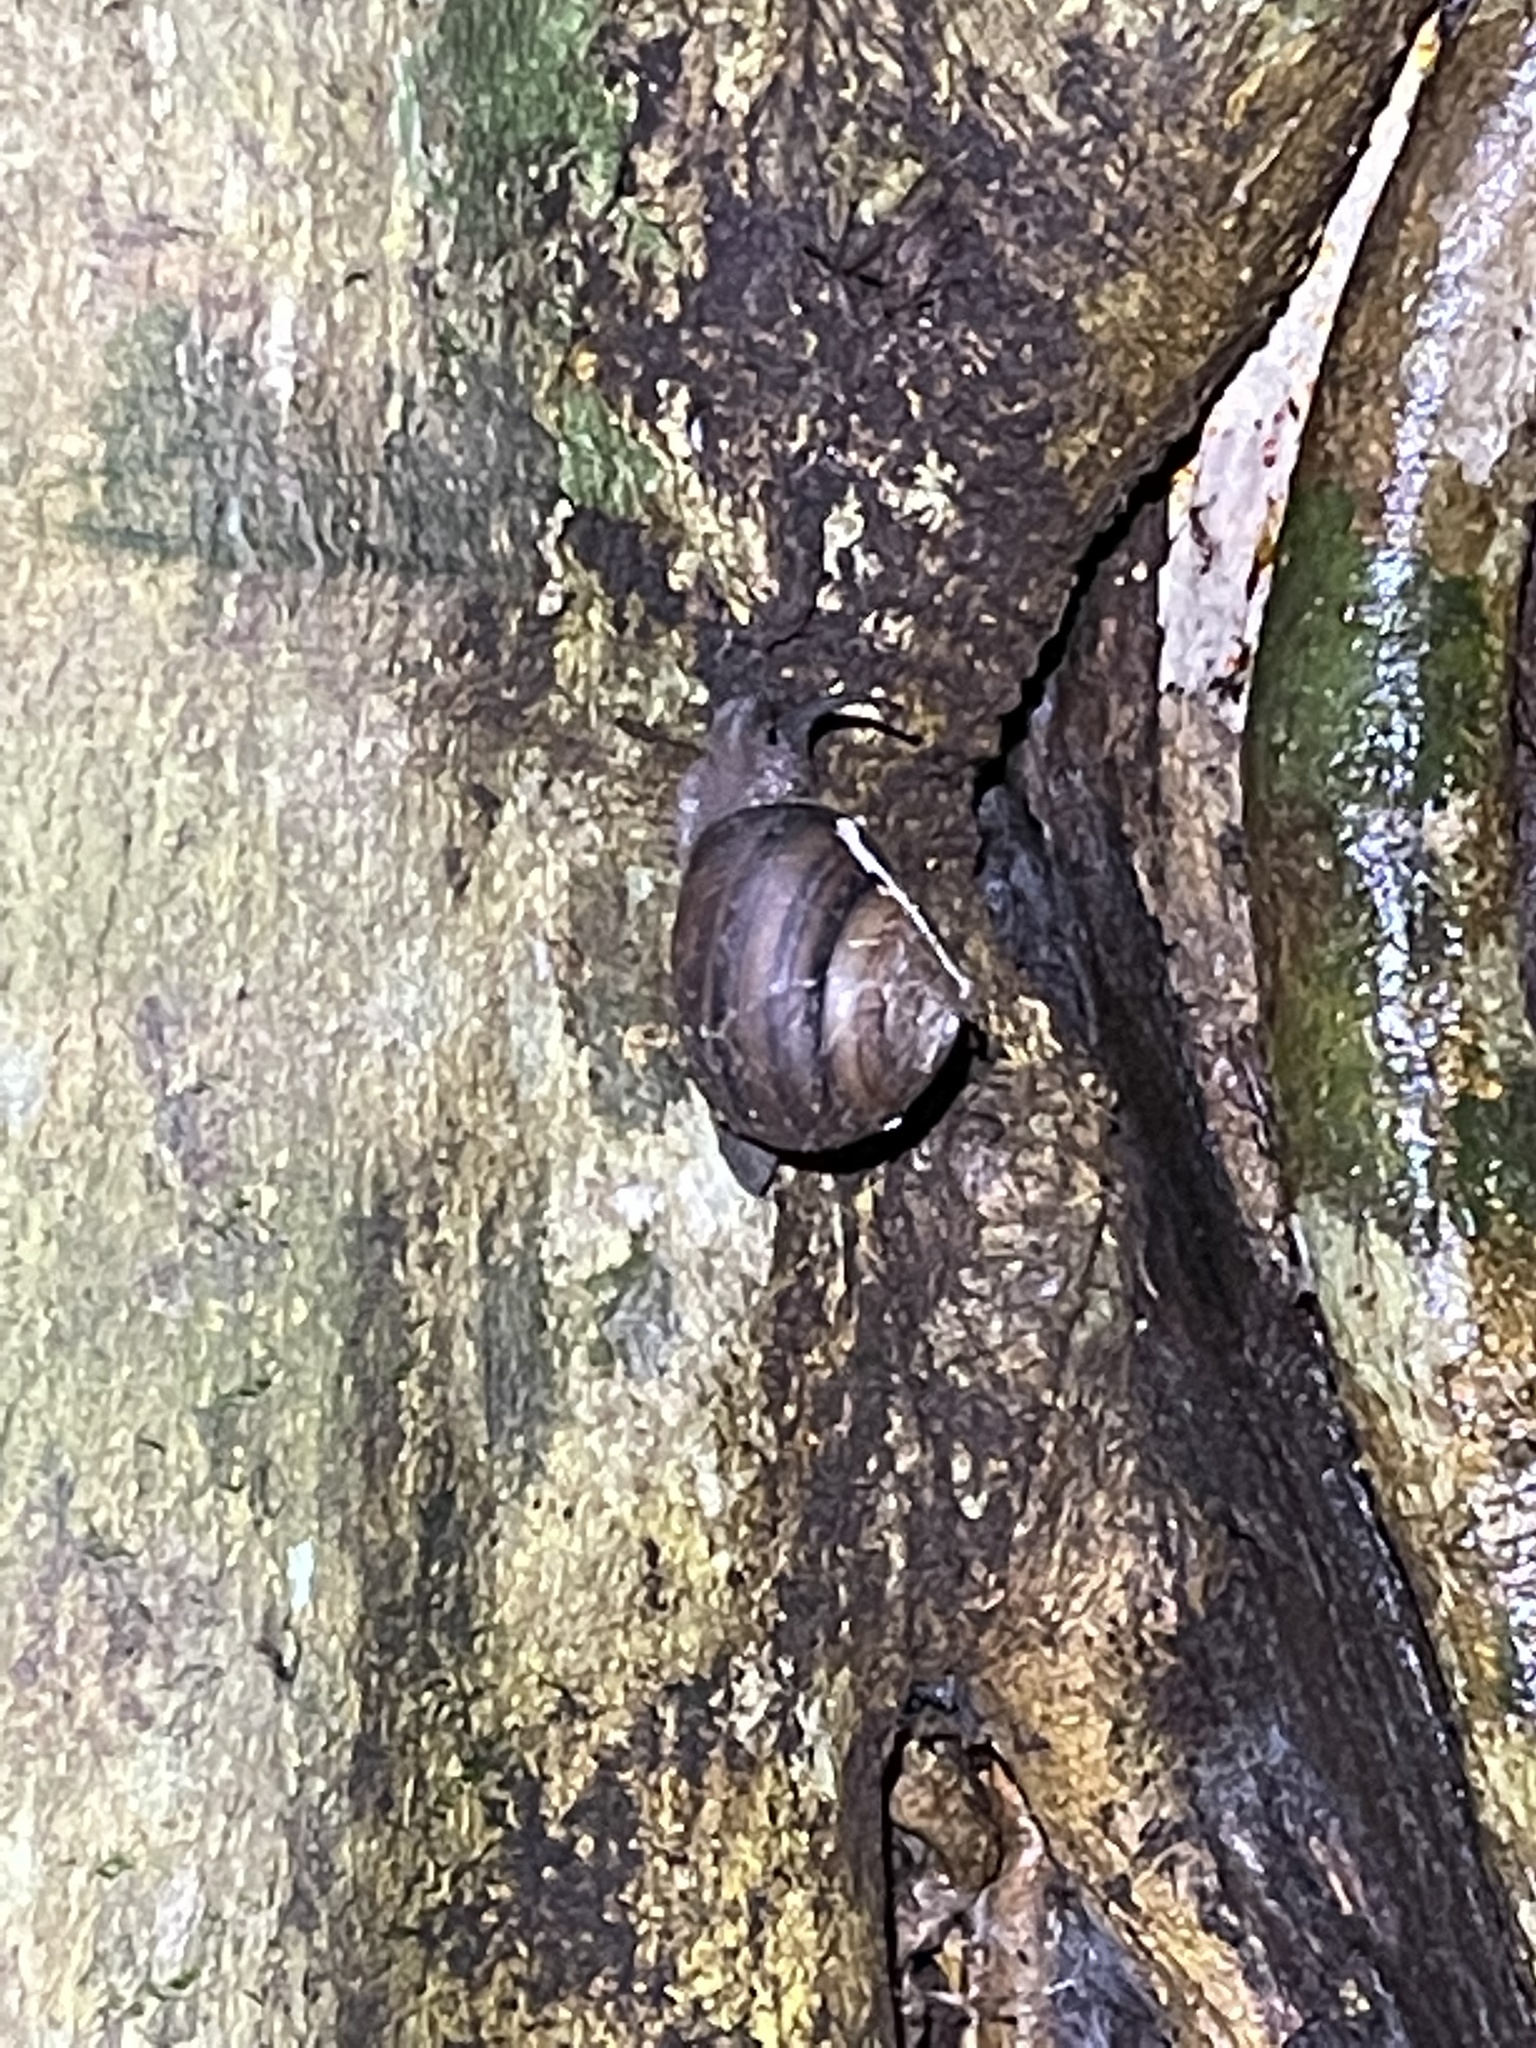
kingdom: Animalia
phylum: Mollusca
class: Gastropoda
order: Stylommatophora
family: Camaenidae
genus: Sphaerospira
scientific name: Sphaerospira fraseri
